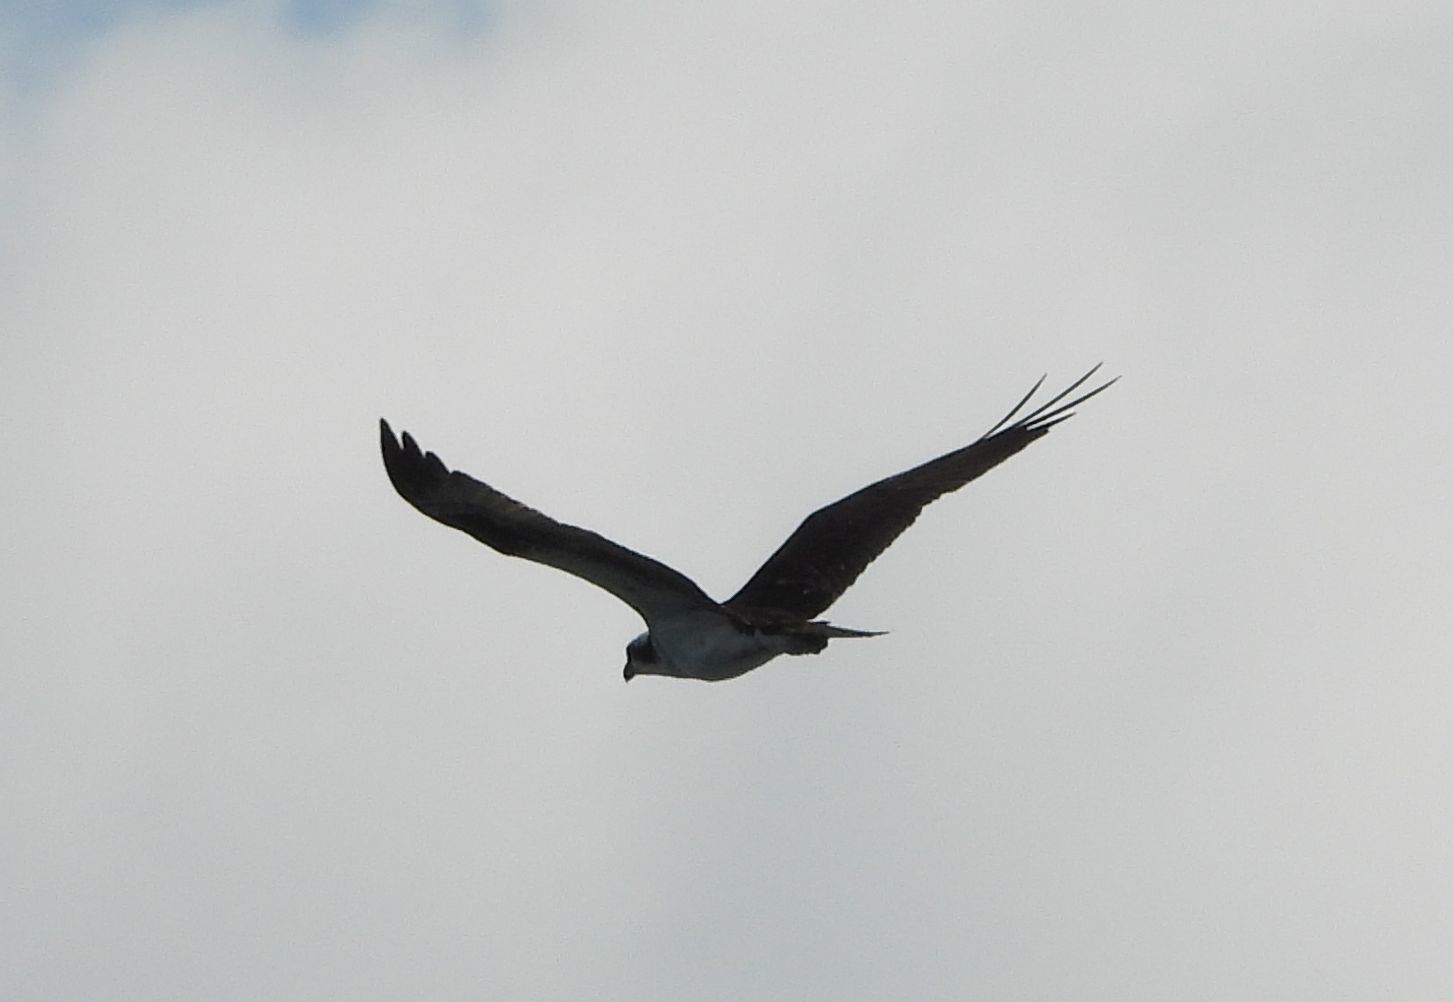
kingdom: Animalia
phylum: Chordata
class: Aves
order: Accipitriformes
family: Pandionidae
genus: Pandion
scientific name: Pandion haliaetus
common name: Osprey
